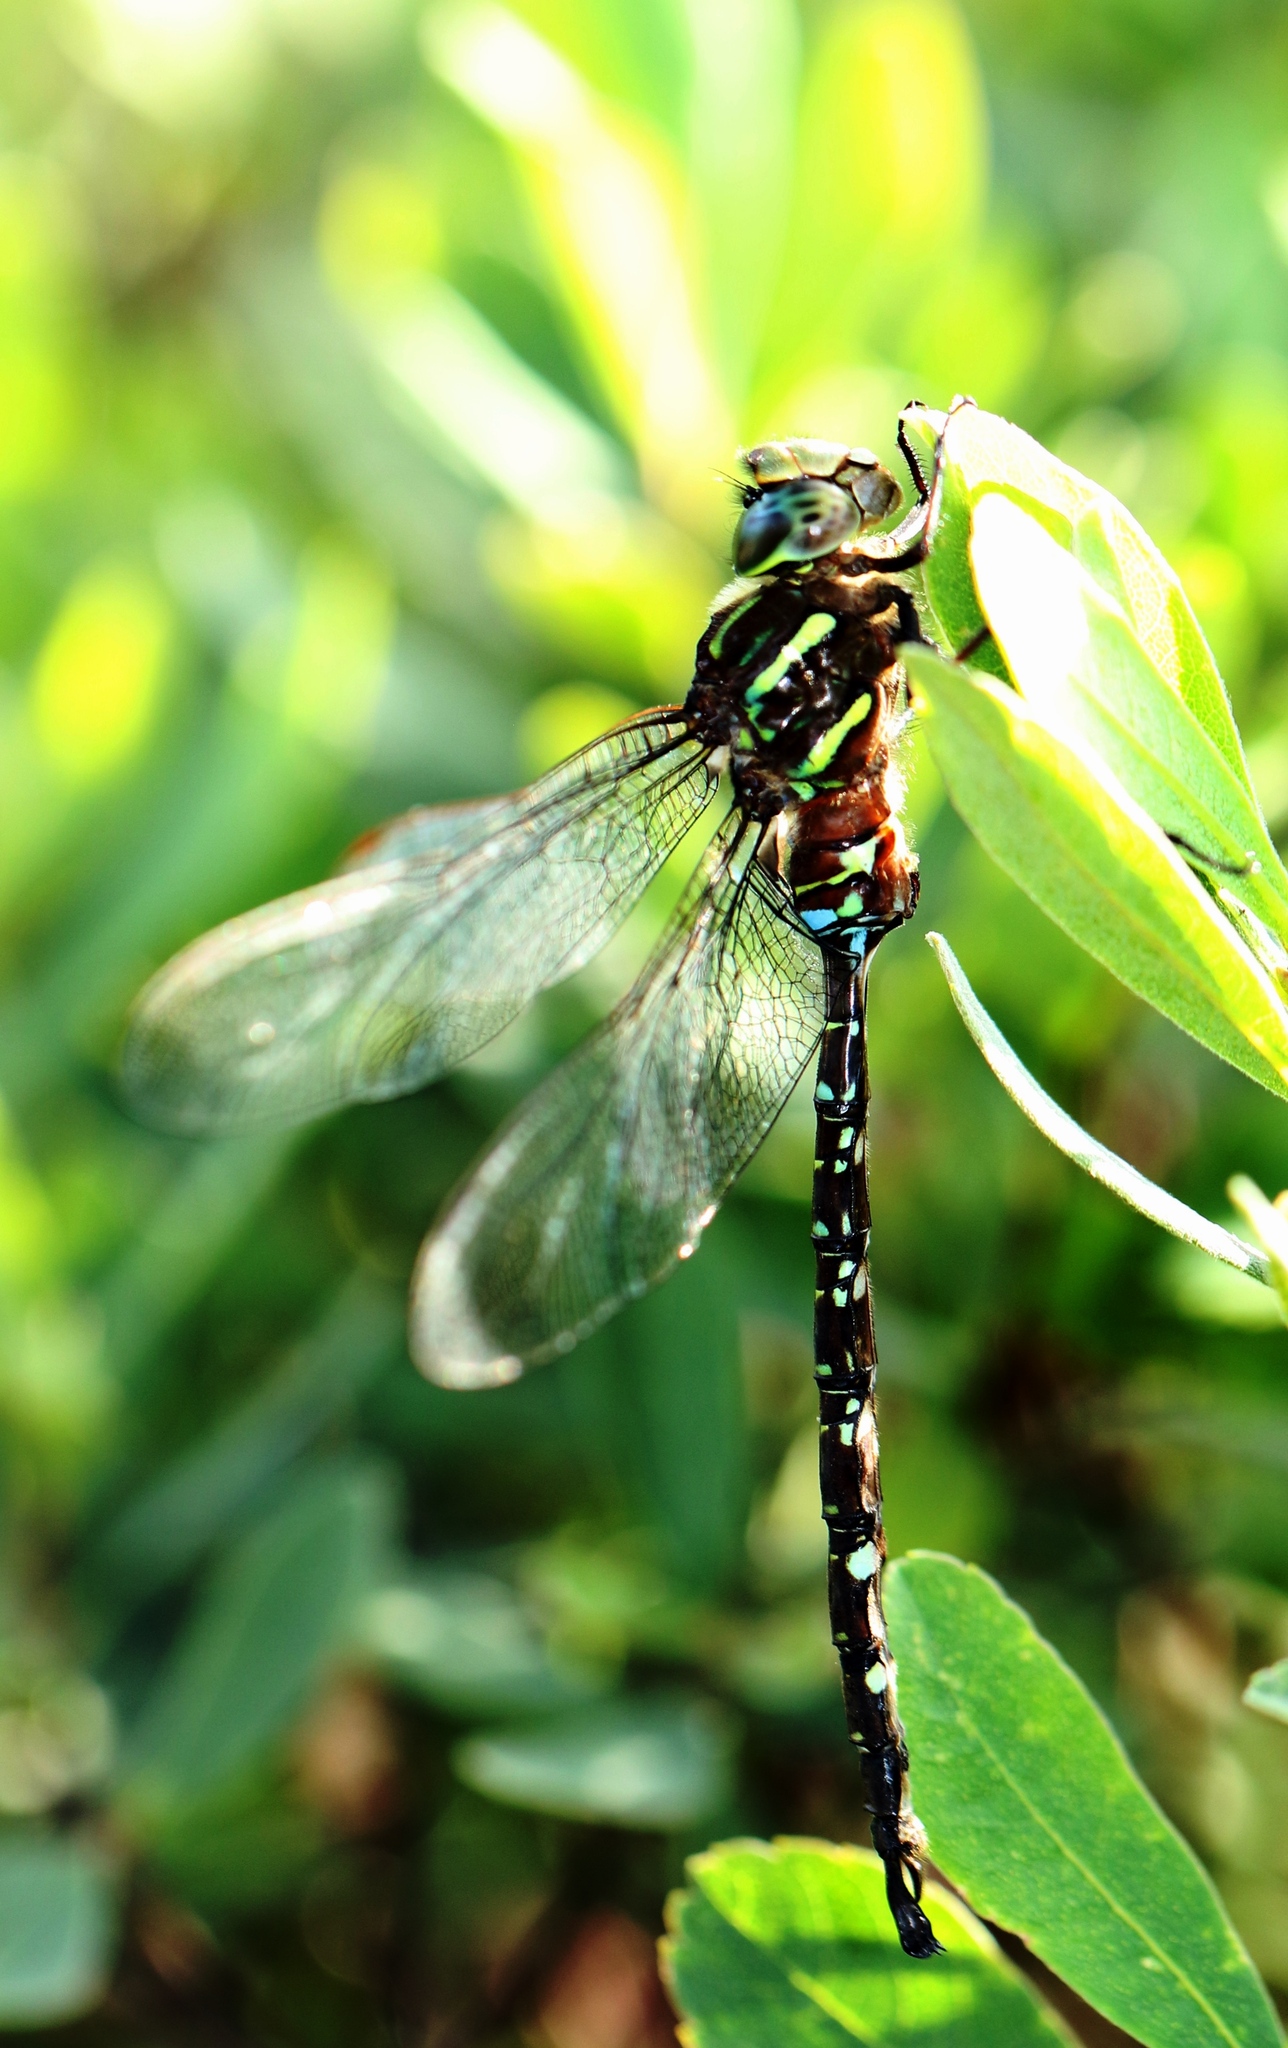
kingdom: Animalia
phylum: Arthropoda
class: Insecta
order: Odonata
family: Aeshnidae
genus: Aeshna
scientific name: Aeshna umbrosa
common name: Shadow darner
